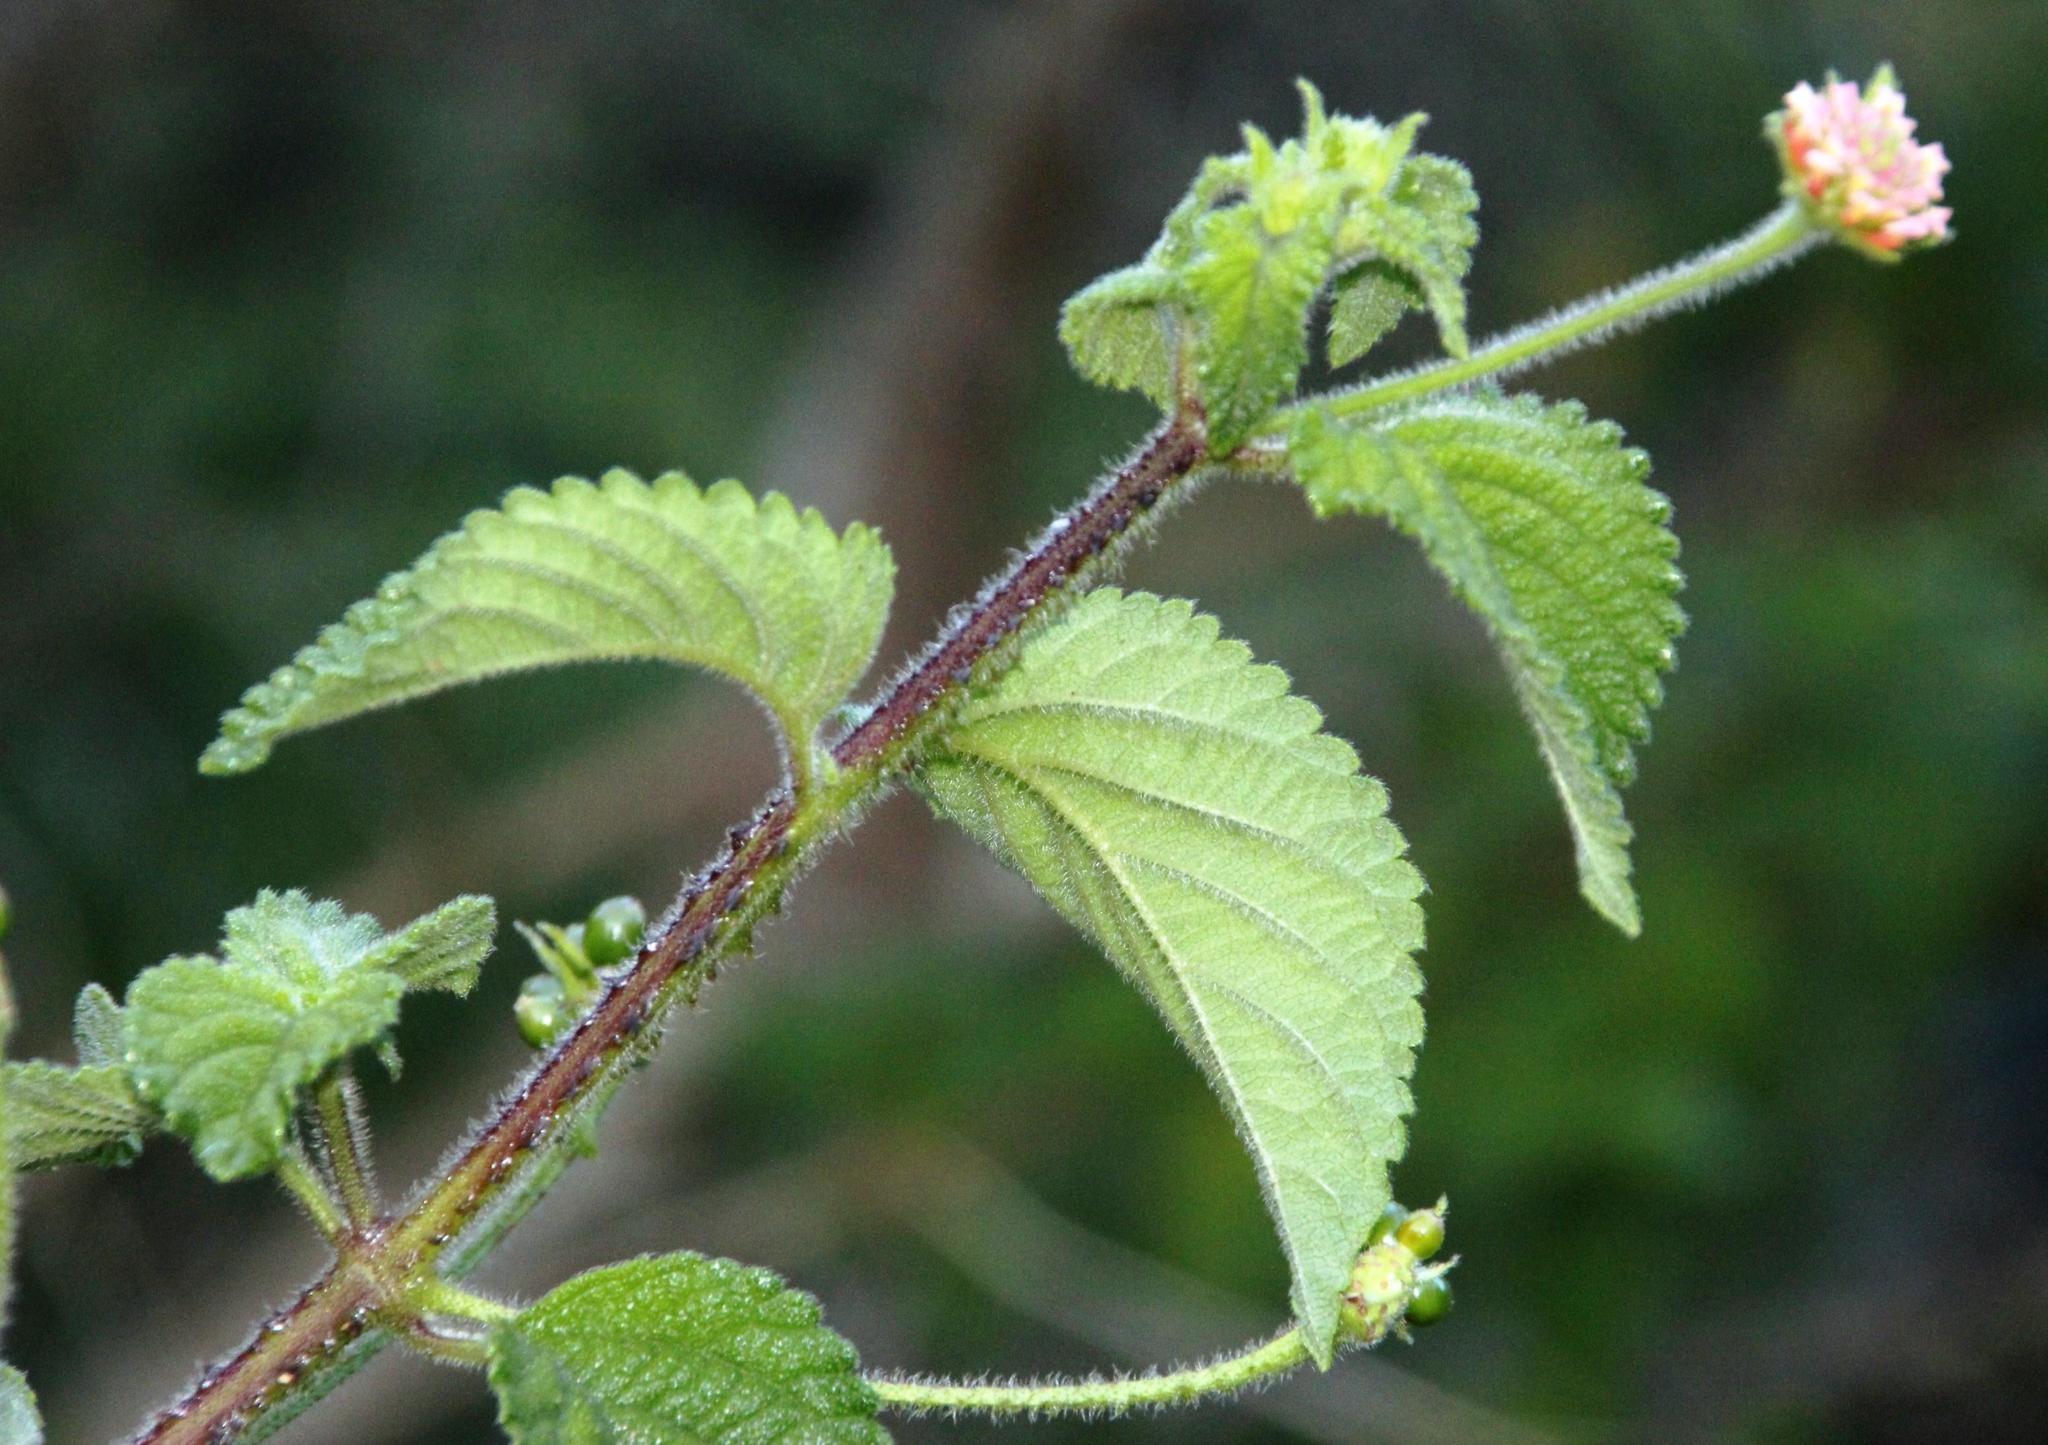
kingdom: Plantae
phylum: Tracheophyta
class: Magnoliopsida
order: Lamiales
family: Verbenaceae
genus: Lantana
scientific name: Lantana camara
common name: Lantana
